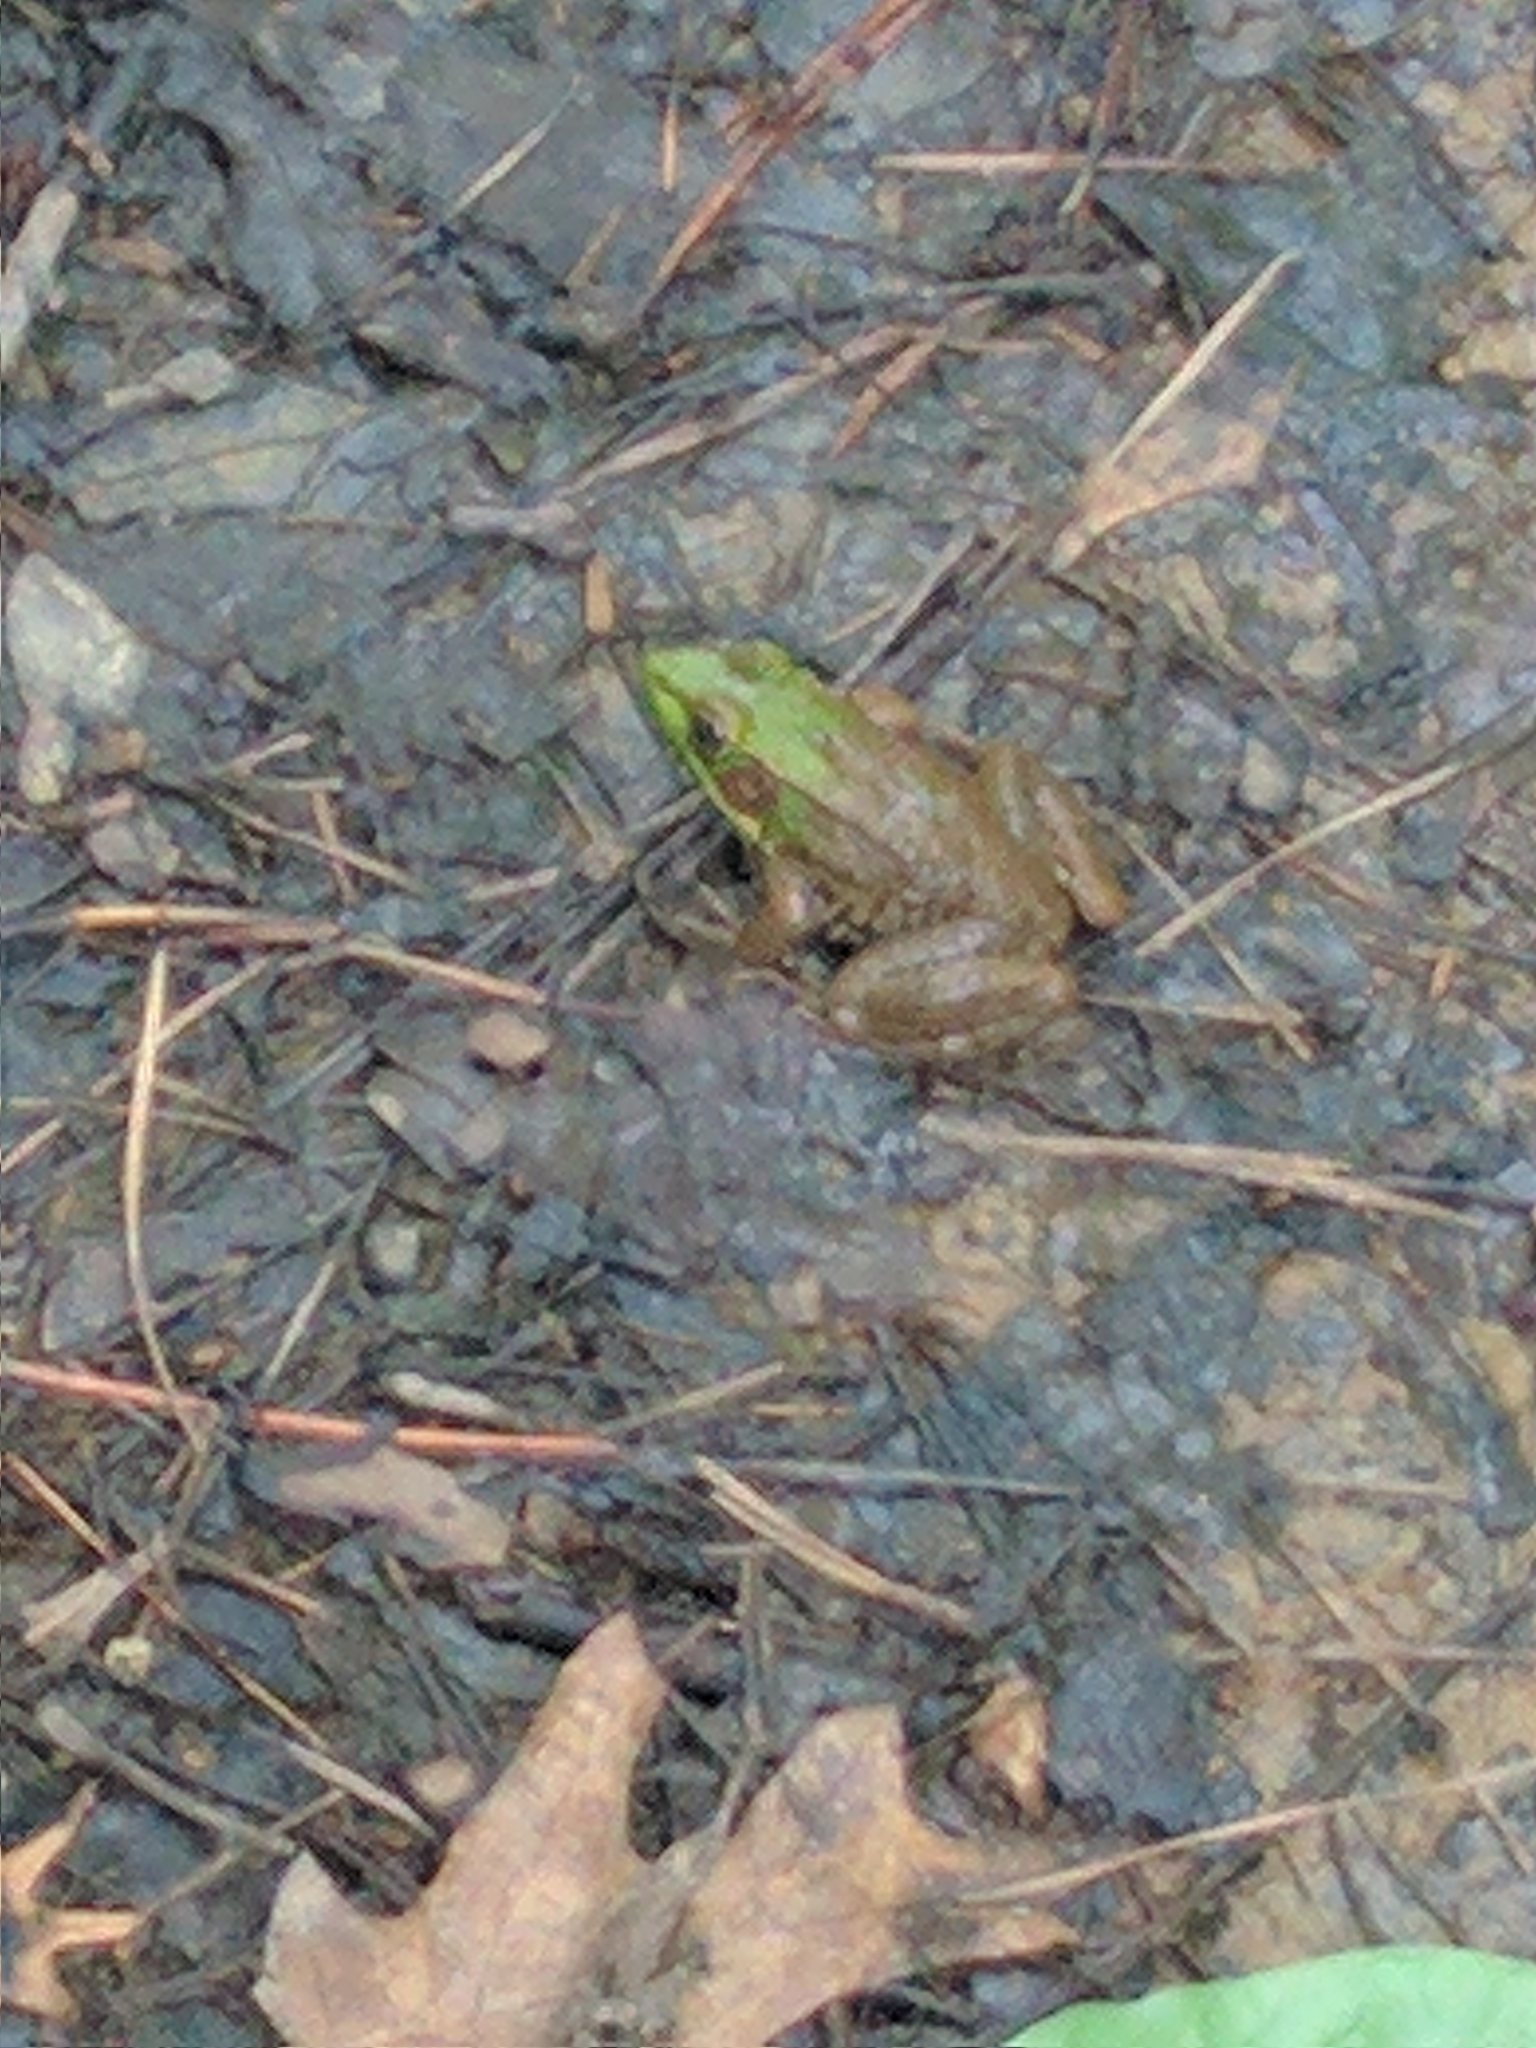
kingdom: Animalia
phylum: Chordata
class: Amphibia
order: Anura
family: Ranidae
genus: Lithobates
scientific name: Lithobates clamitans
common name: Green frog
